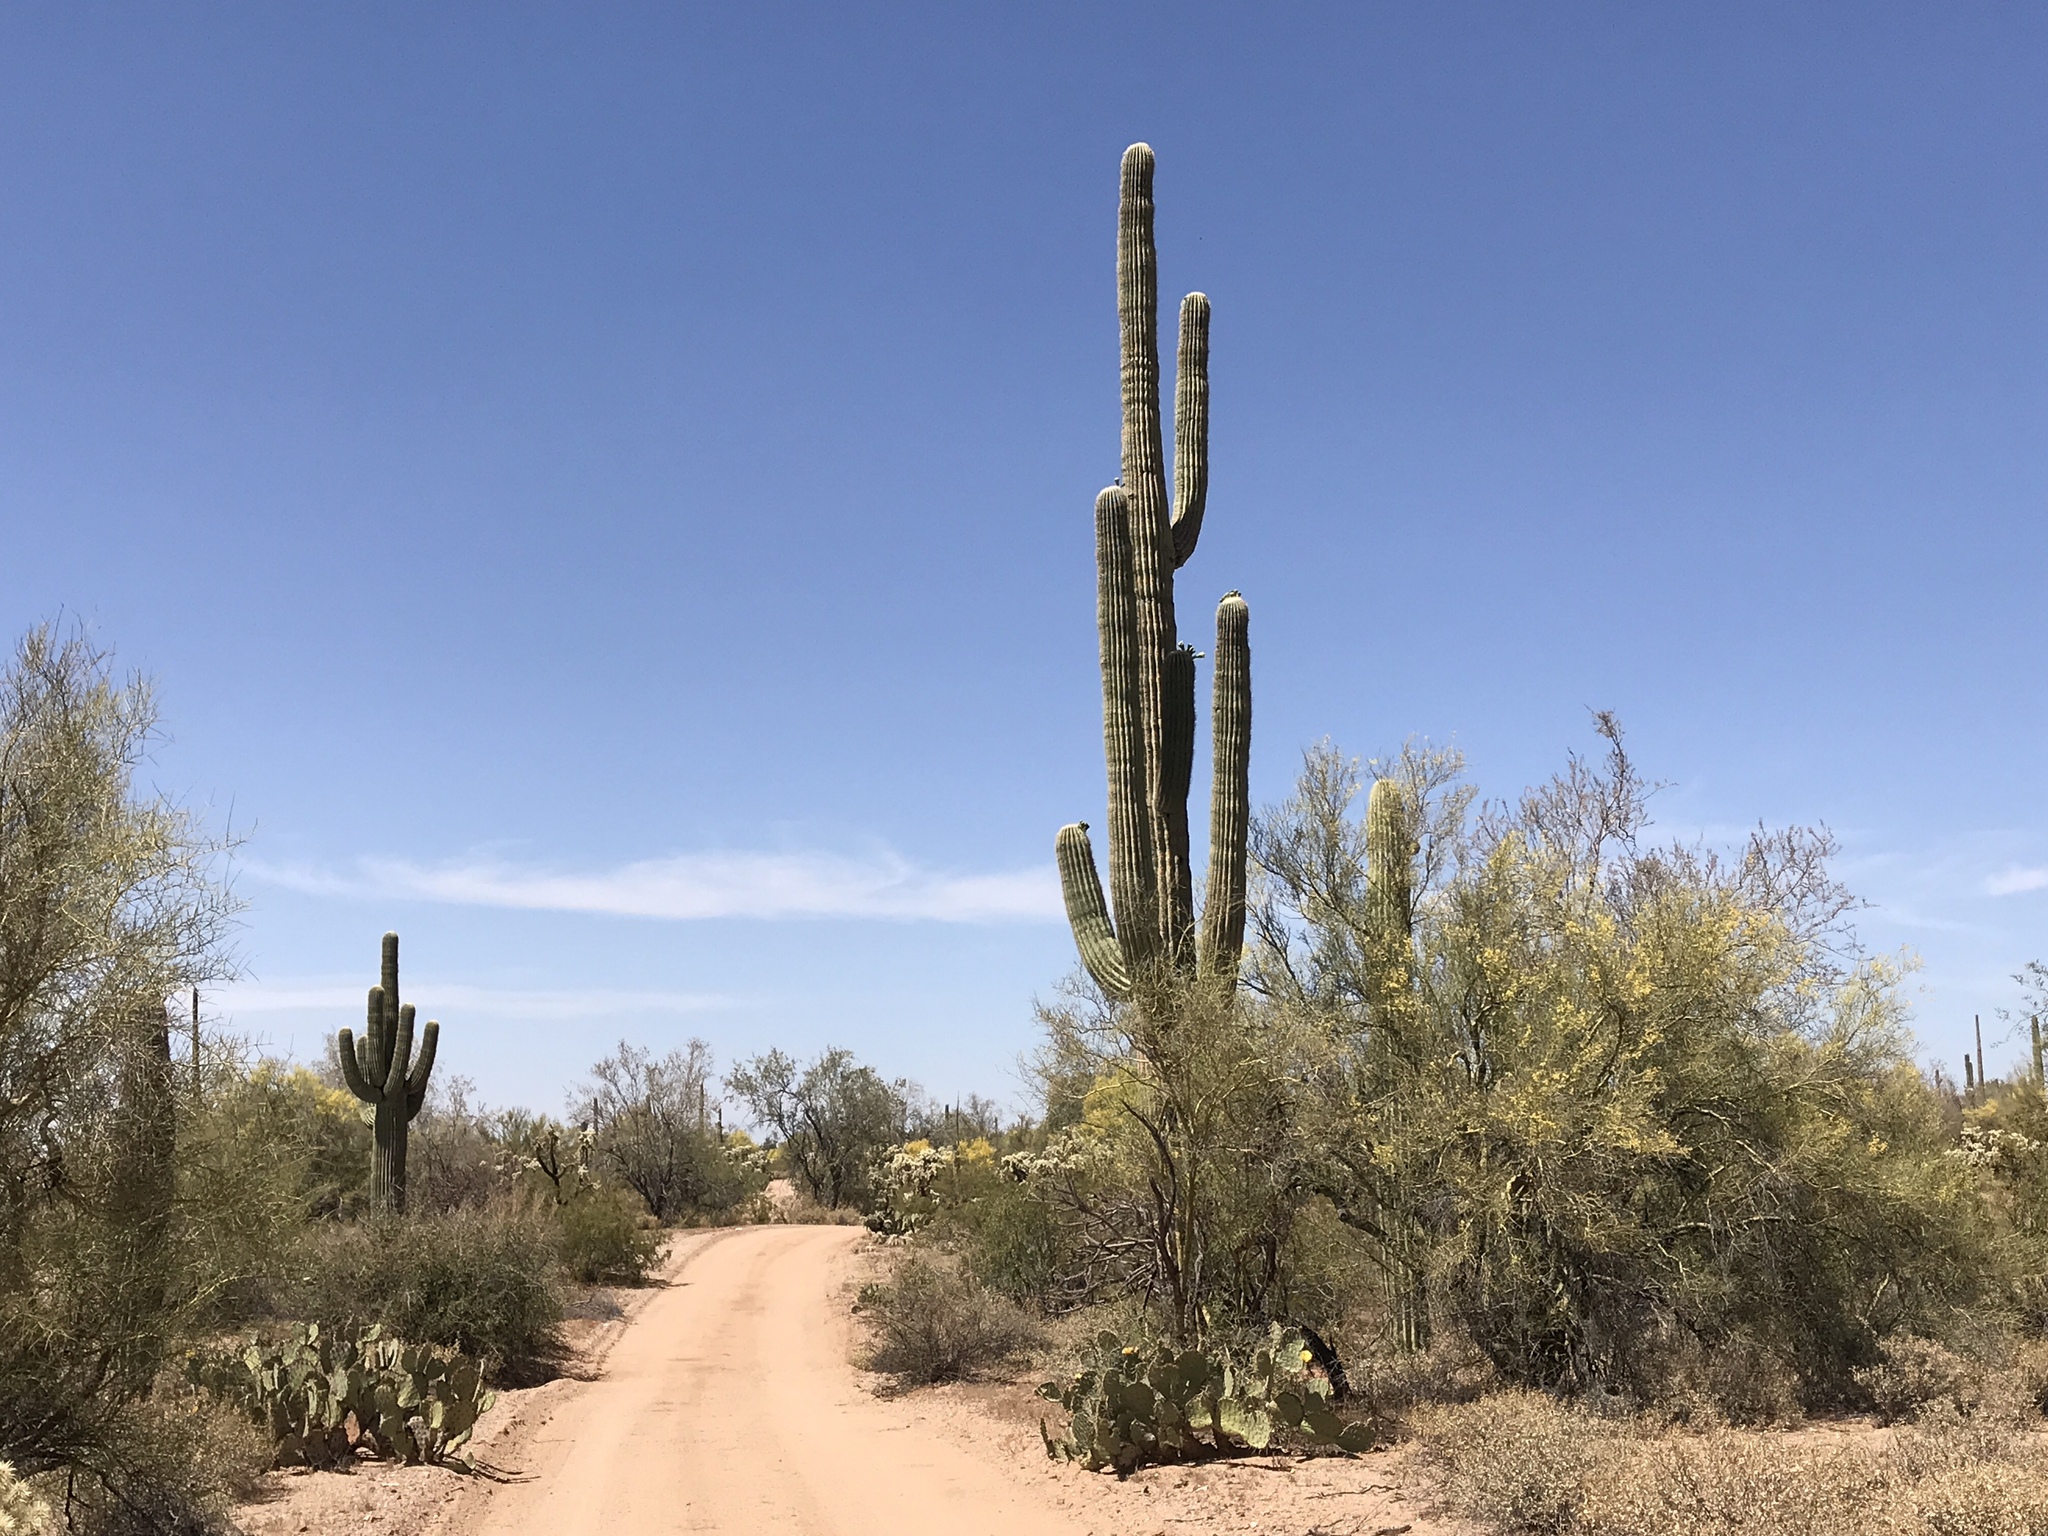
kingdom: Plantae
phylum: Tracheophyta
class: Magnoliopsida
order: Fabales
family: Fabaceae
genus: Parkinsonia
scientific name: Parkinsonia florida
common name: Blue paloverde
